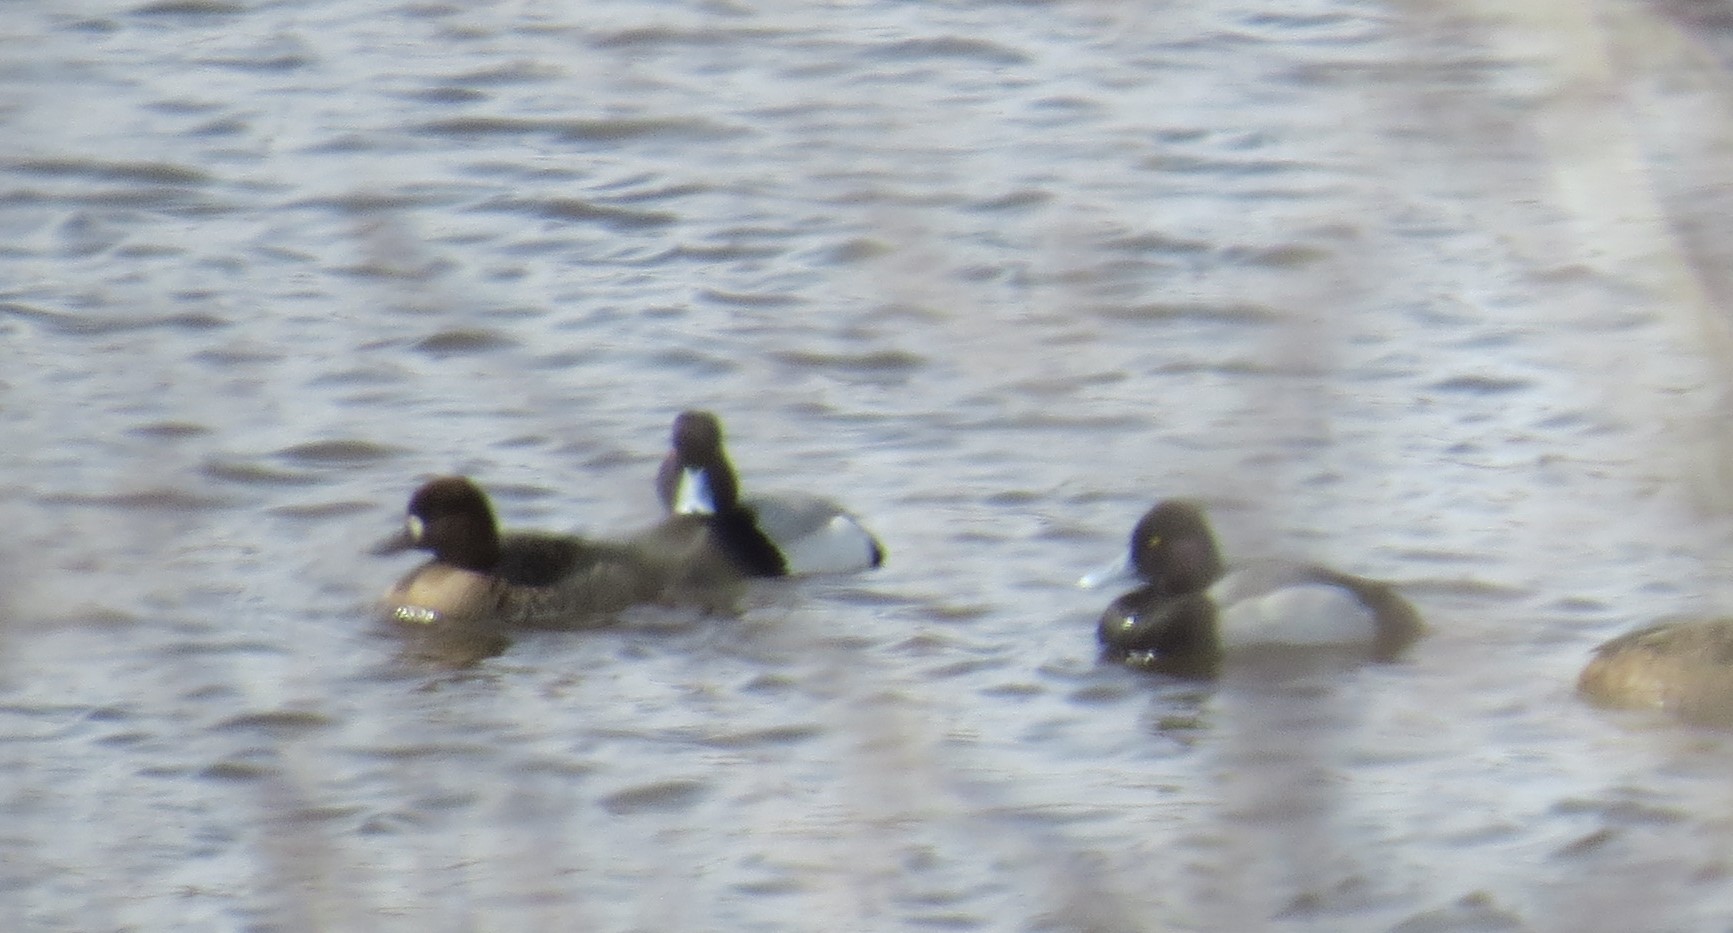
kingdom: Animalia
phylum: Chordata
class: Aves
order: Anseriformes
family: Anatidae
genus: Aythya
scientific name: Aythya affinis
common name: Lesser scaup
